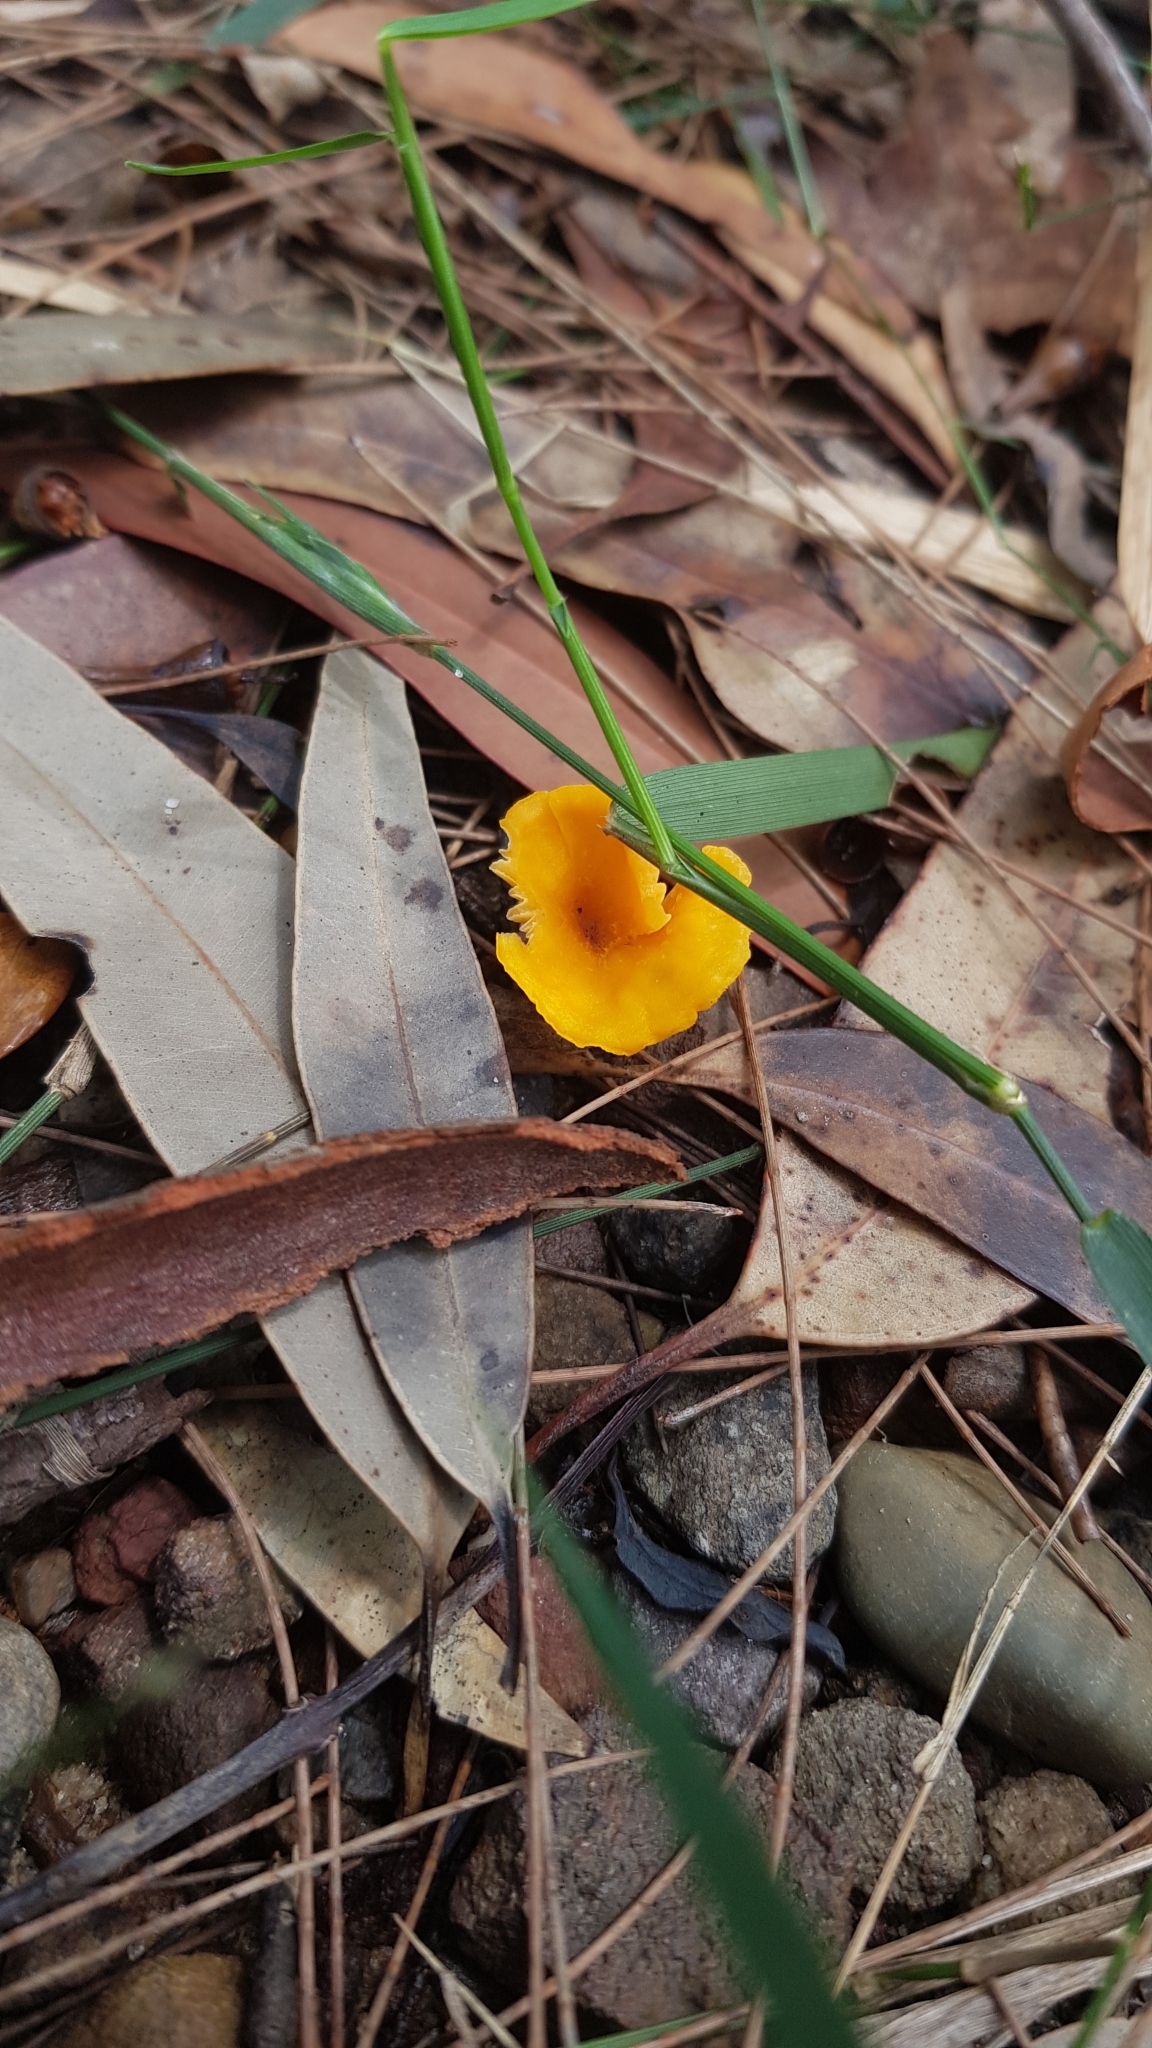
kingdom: Fungi
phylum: Basidiomycota
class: Agaricomycetes
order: Cantharellales
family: Hydnaceae
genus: Cantharellus
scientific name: Cantharellus
